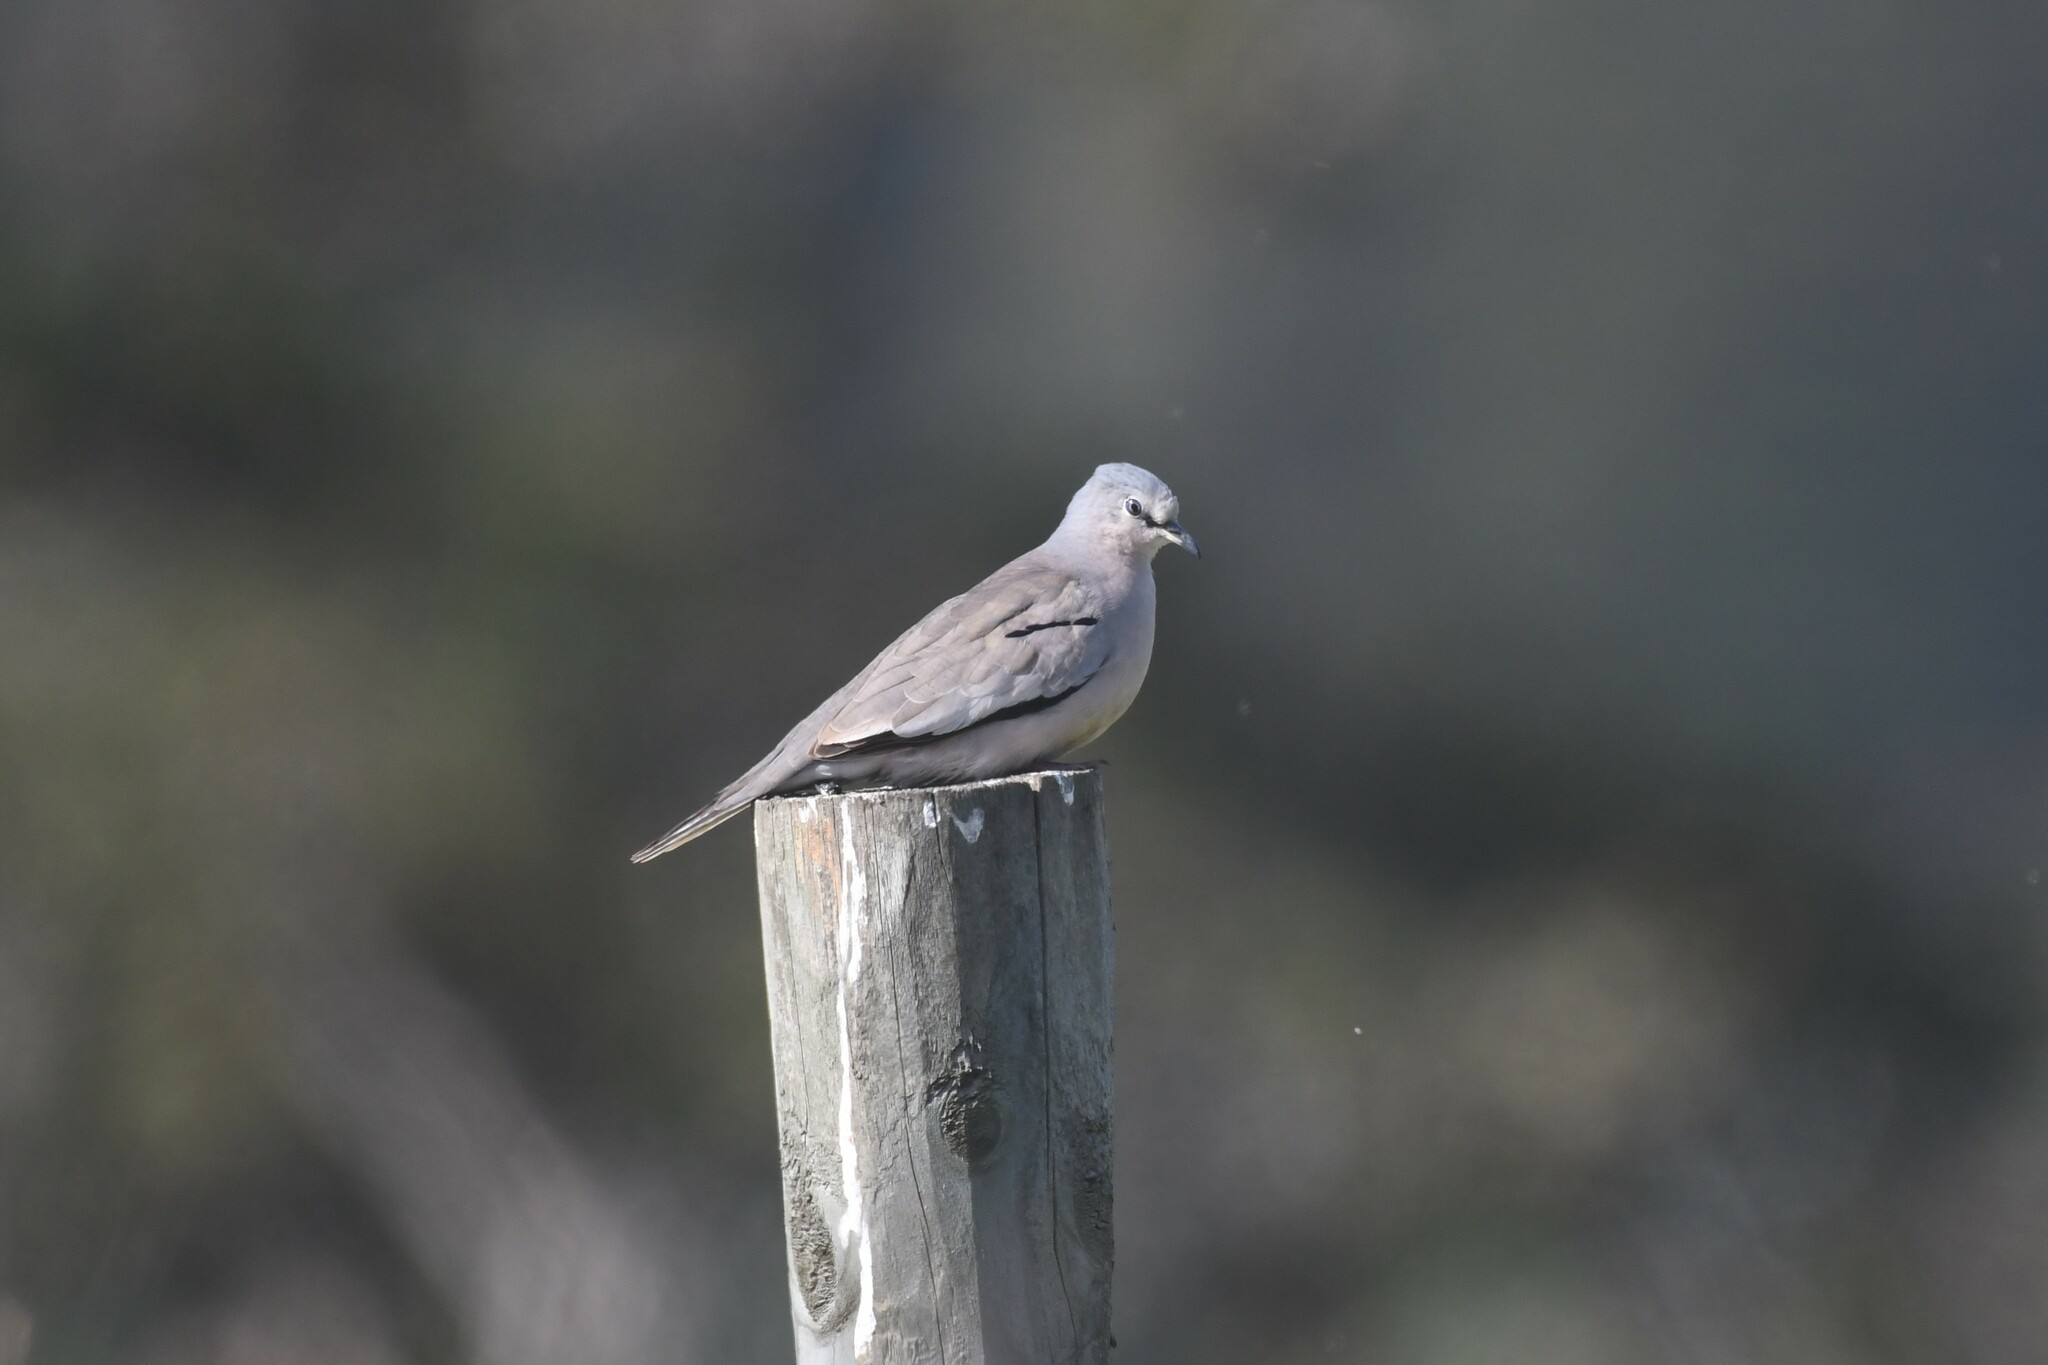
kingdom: Animalia
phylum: Chordata
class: Aves
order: Columbiformes
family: Columbidae
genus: Columbina
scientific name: Columbina picui
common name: Picui ground dove
